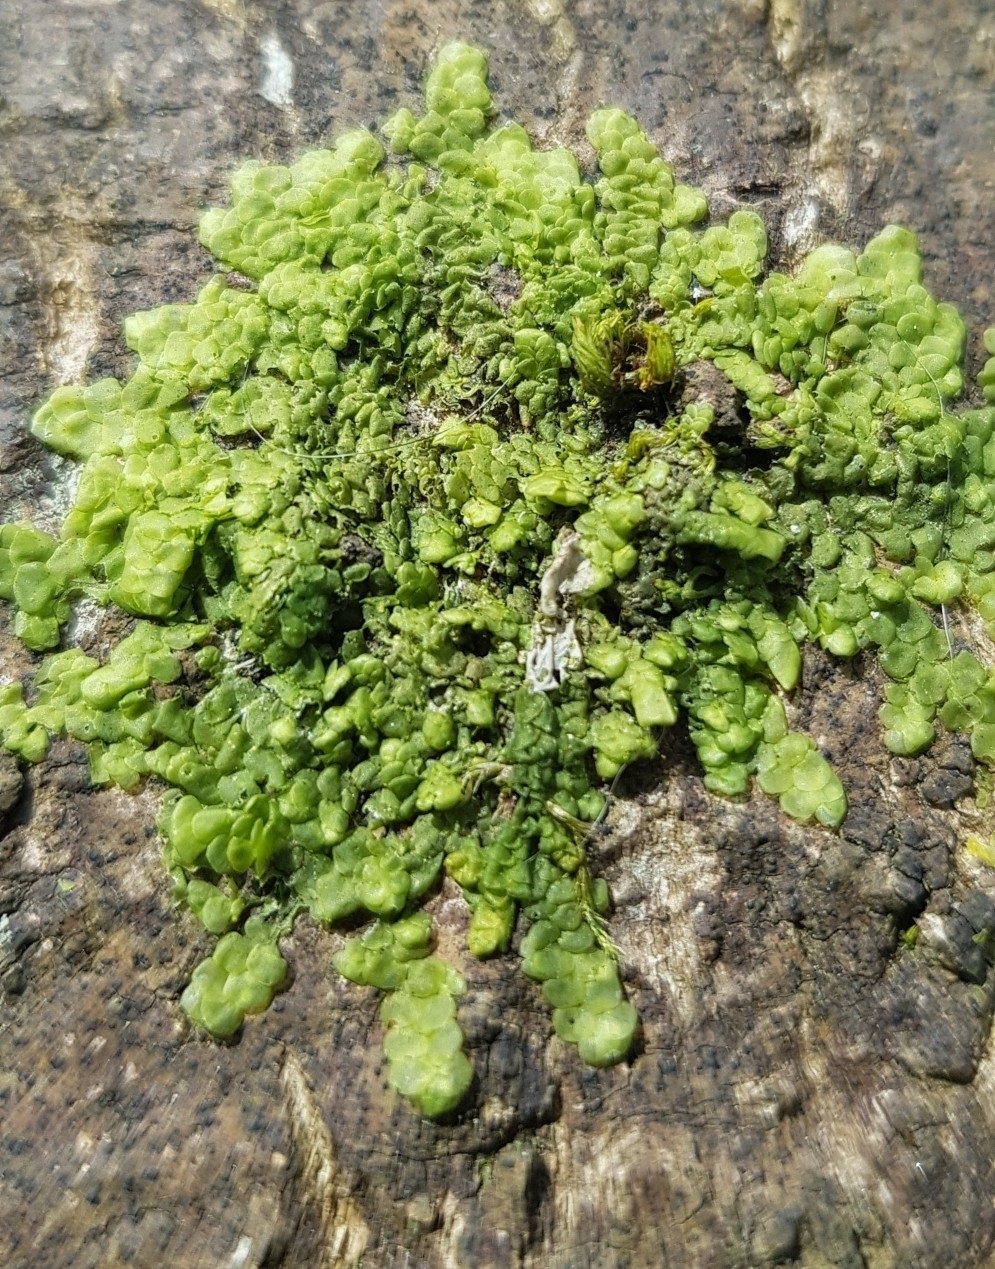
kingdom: Plantae
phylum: Marchantiophyta
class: Jungermanniopsida
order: Porellales
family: Radulaceae
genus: Radula
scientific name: Radula complanata
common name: Flat-leaved scalewort
